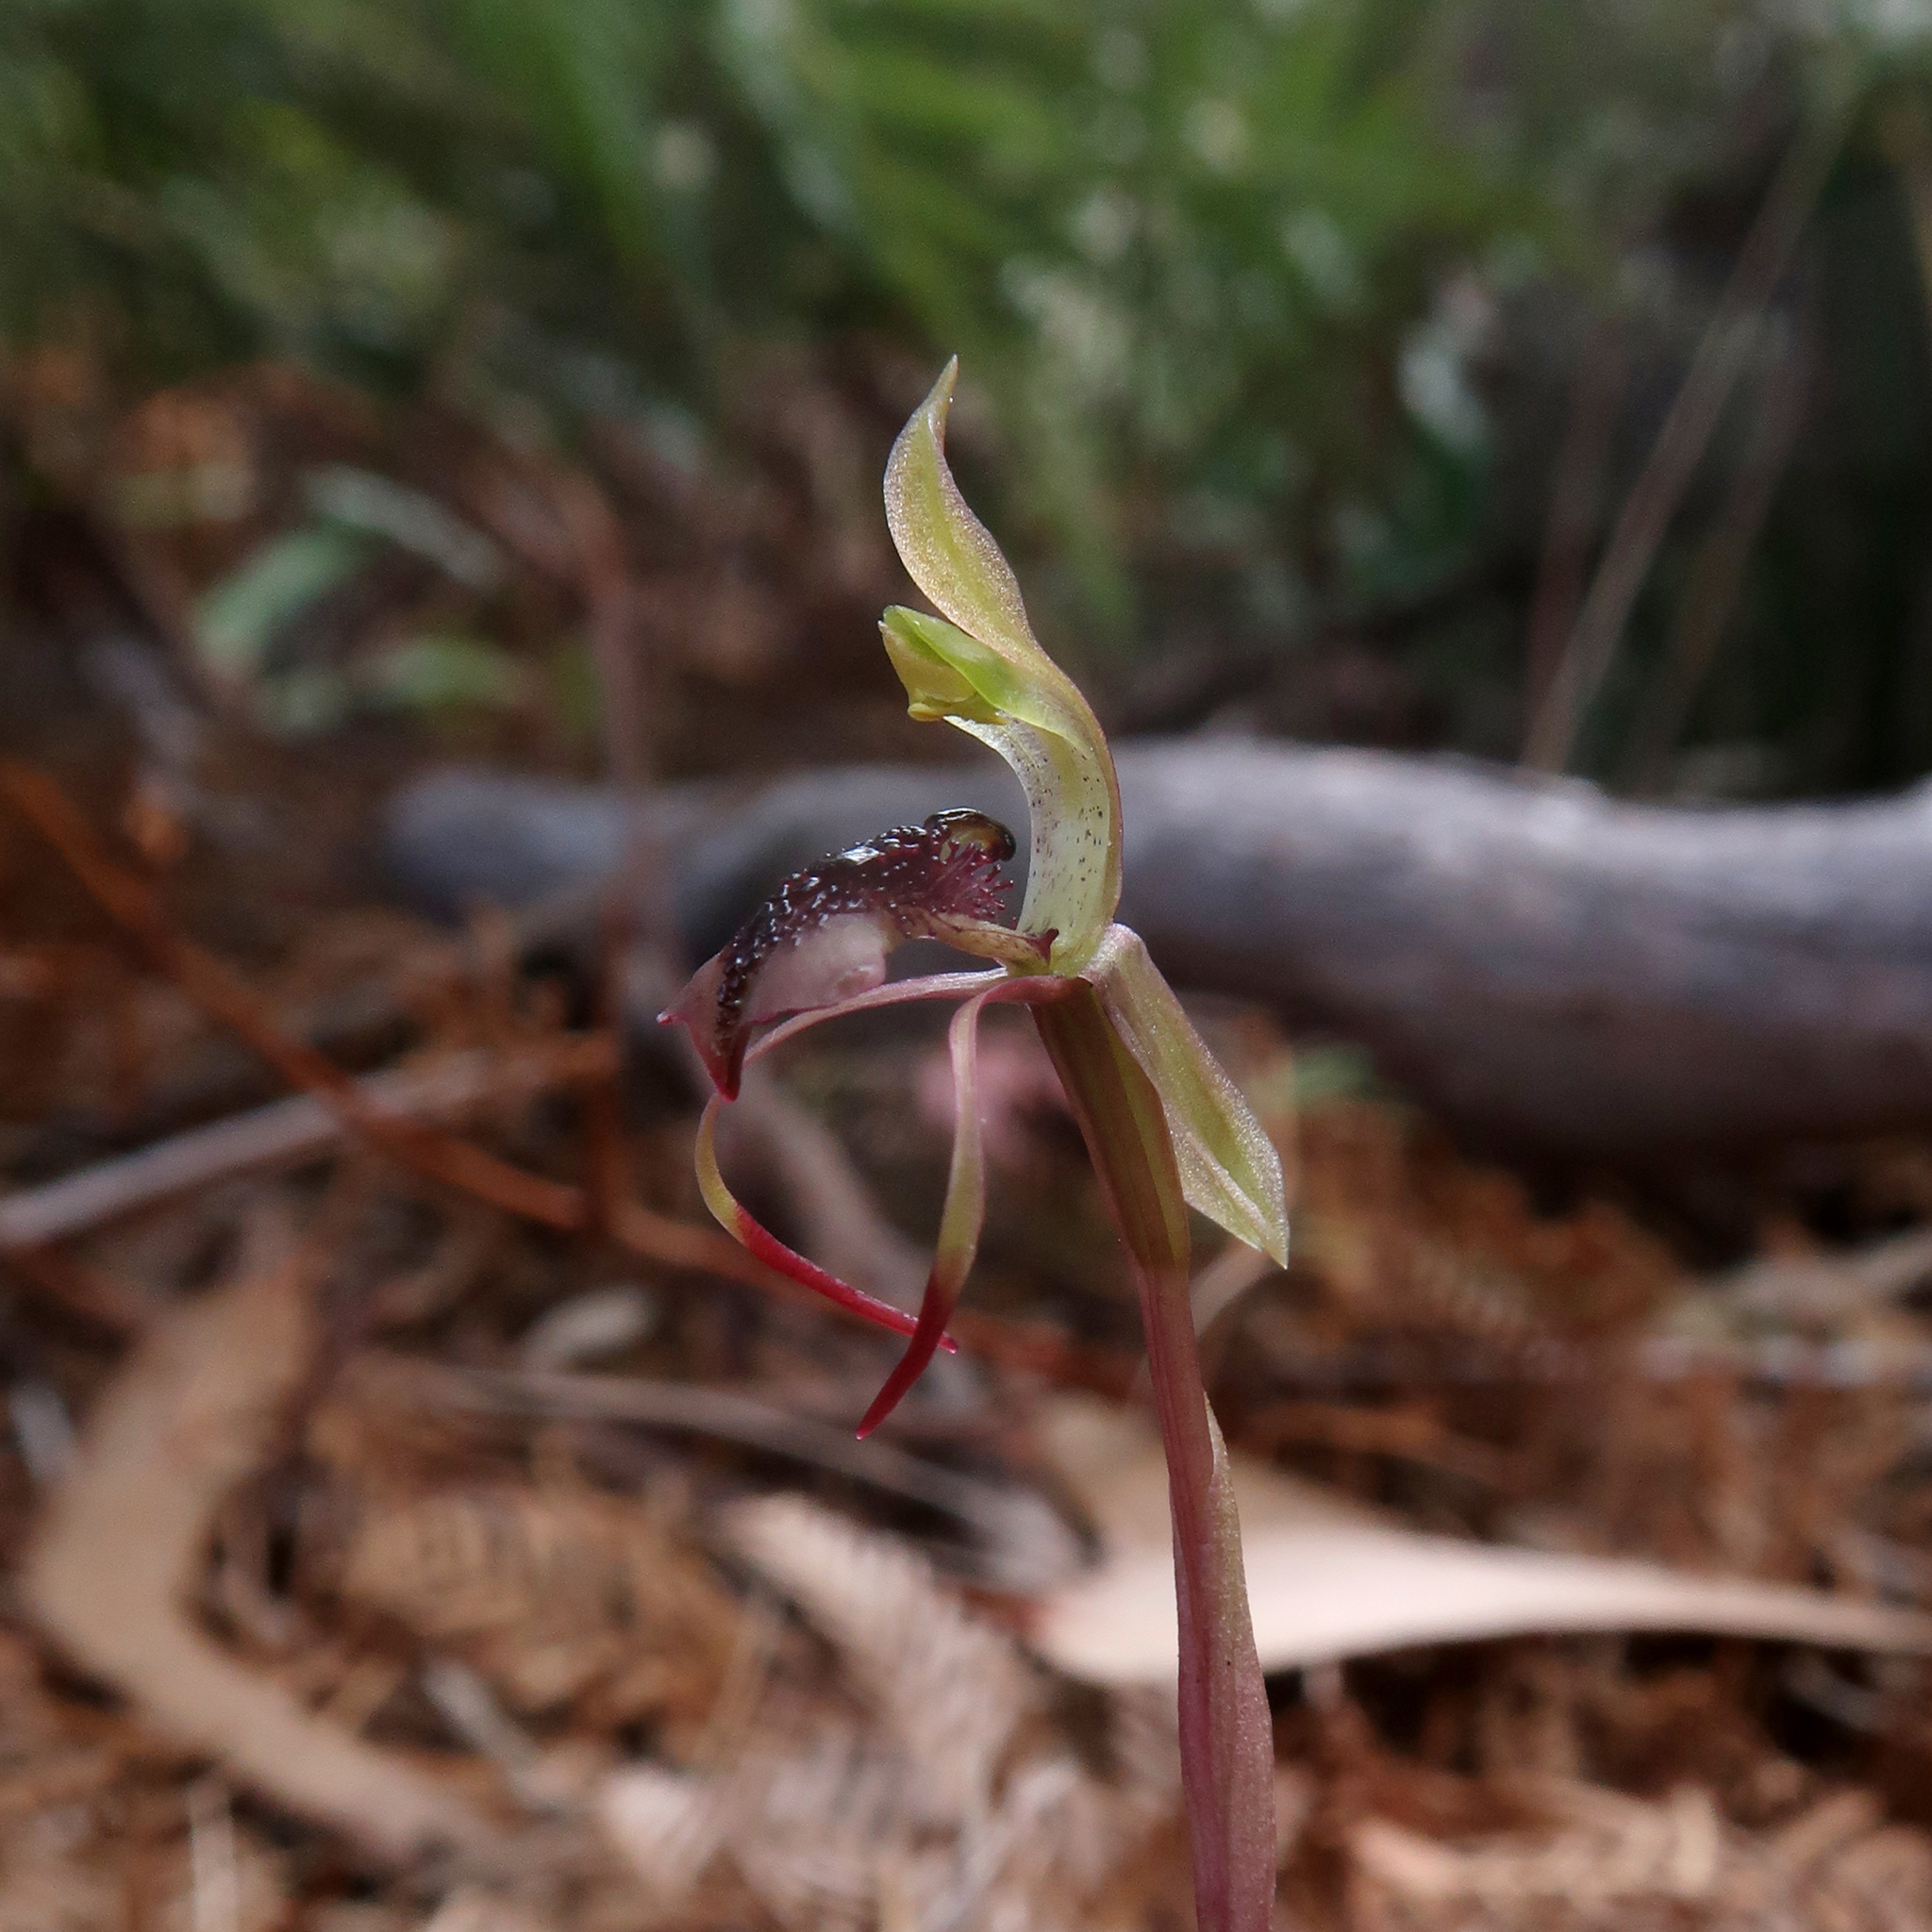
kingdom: Plantae
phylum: Tracheophyta
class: Liliopsida
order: Asparagales
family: Orchidaceae
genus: Chiloglottis
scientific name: Chiloglottis reflexa
